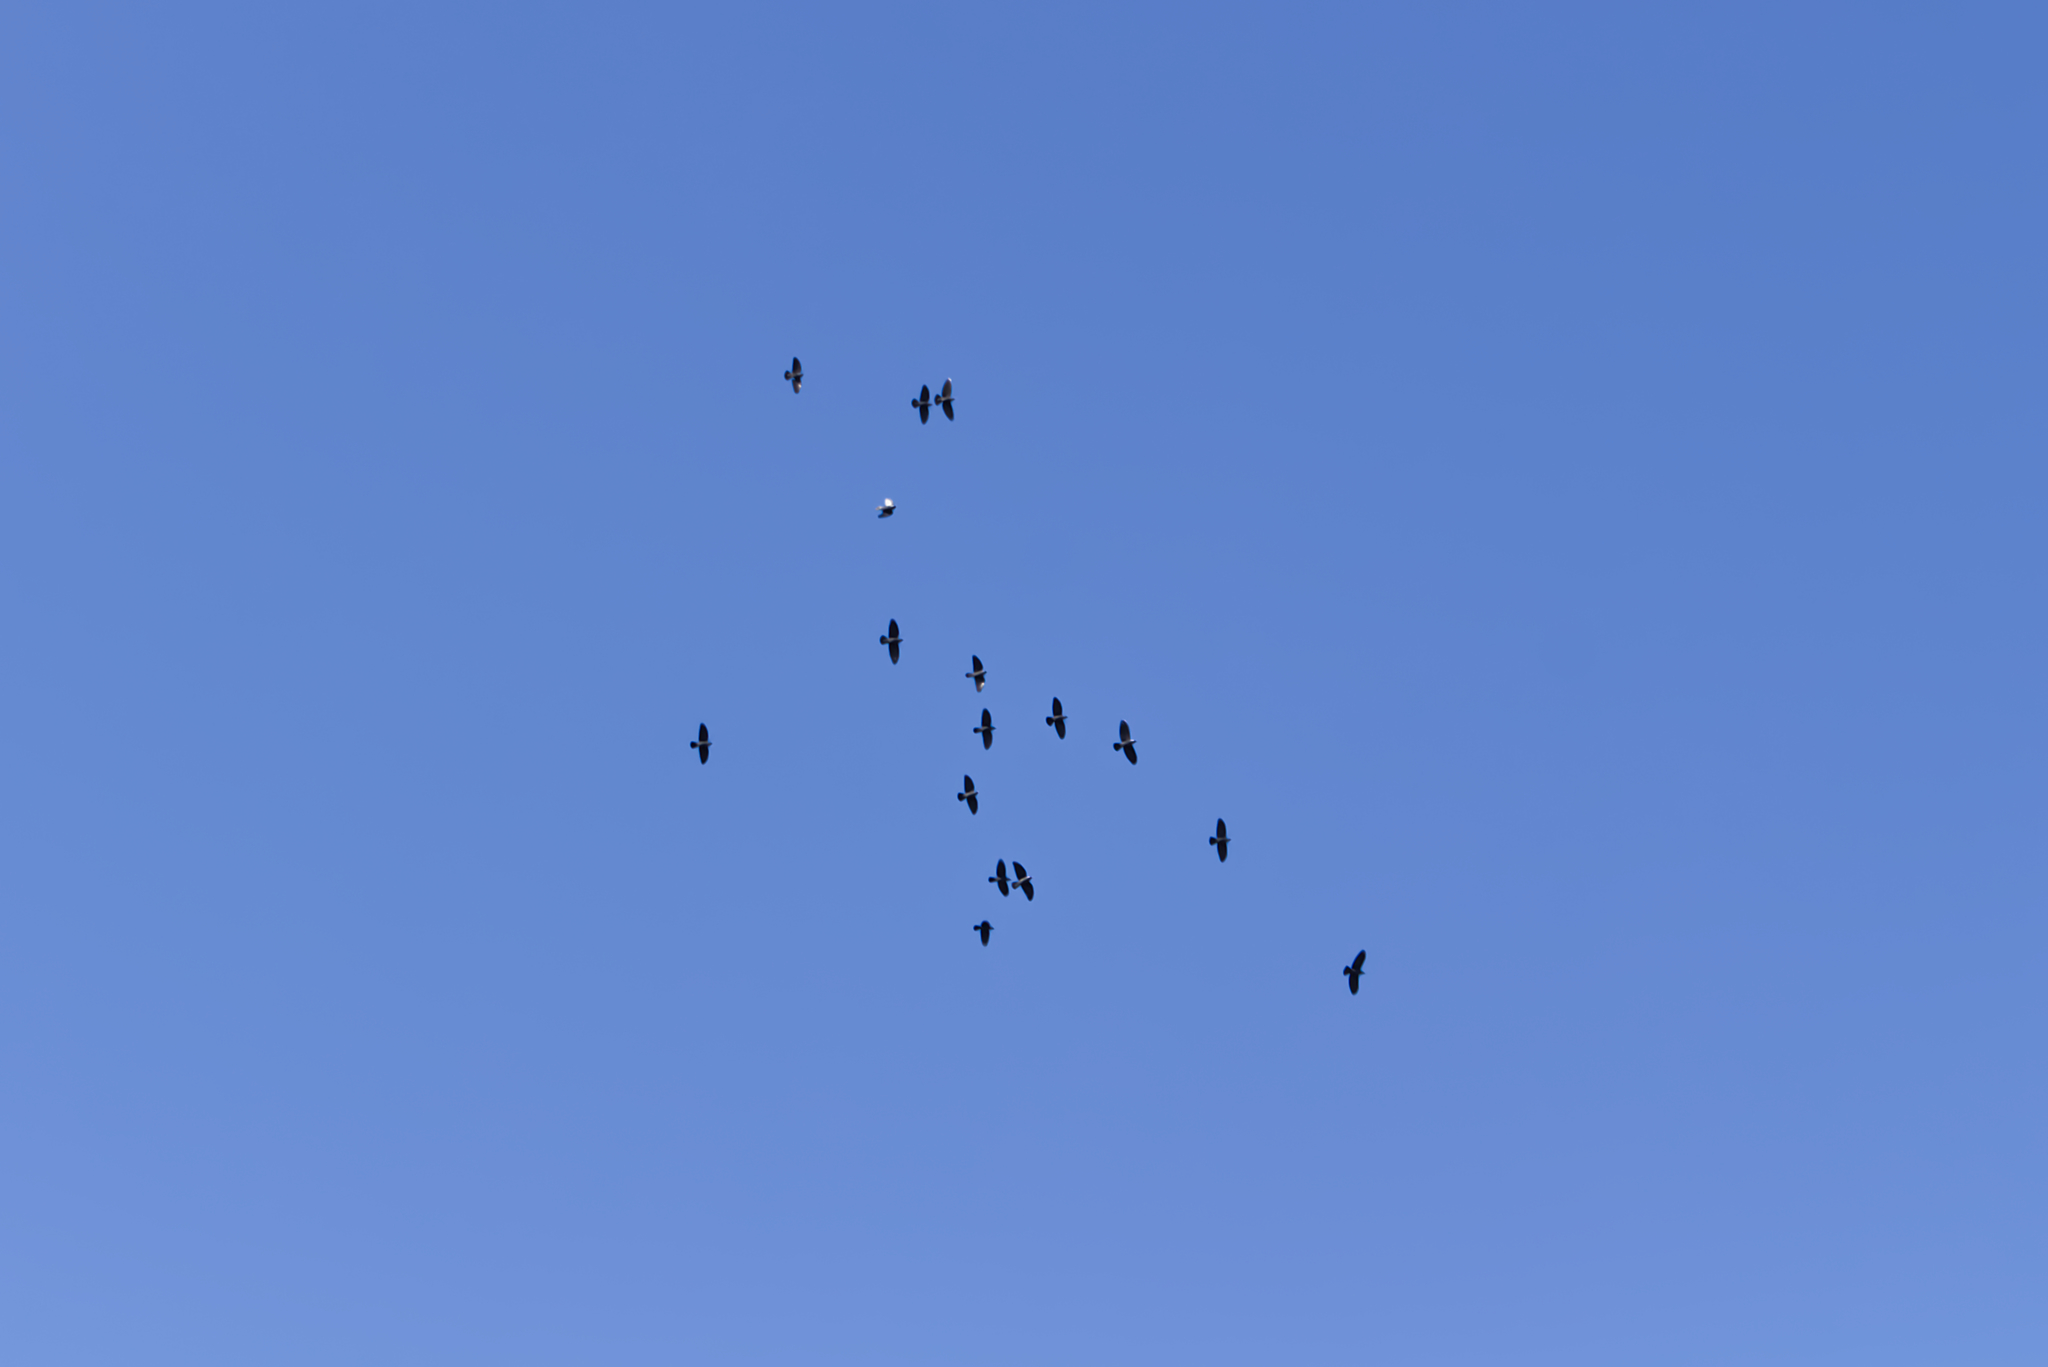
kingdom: Animalia
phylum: Chordata
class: Aves
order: Passeriformes
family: Corvidae
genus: Coloeus
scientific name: Coloeus monedula
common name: Western jackdaw
